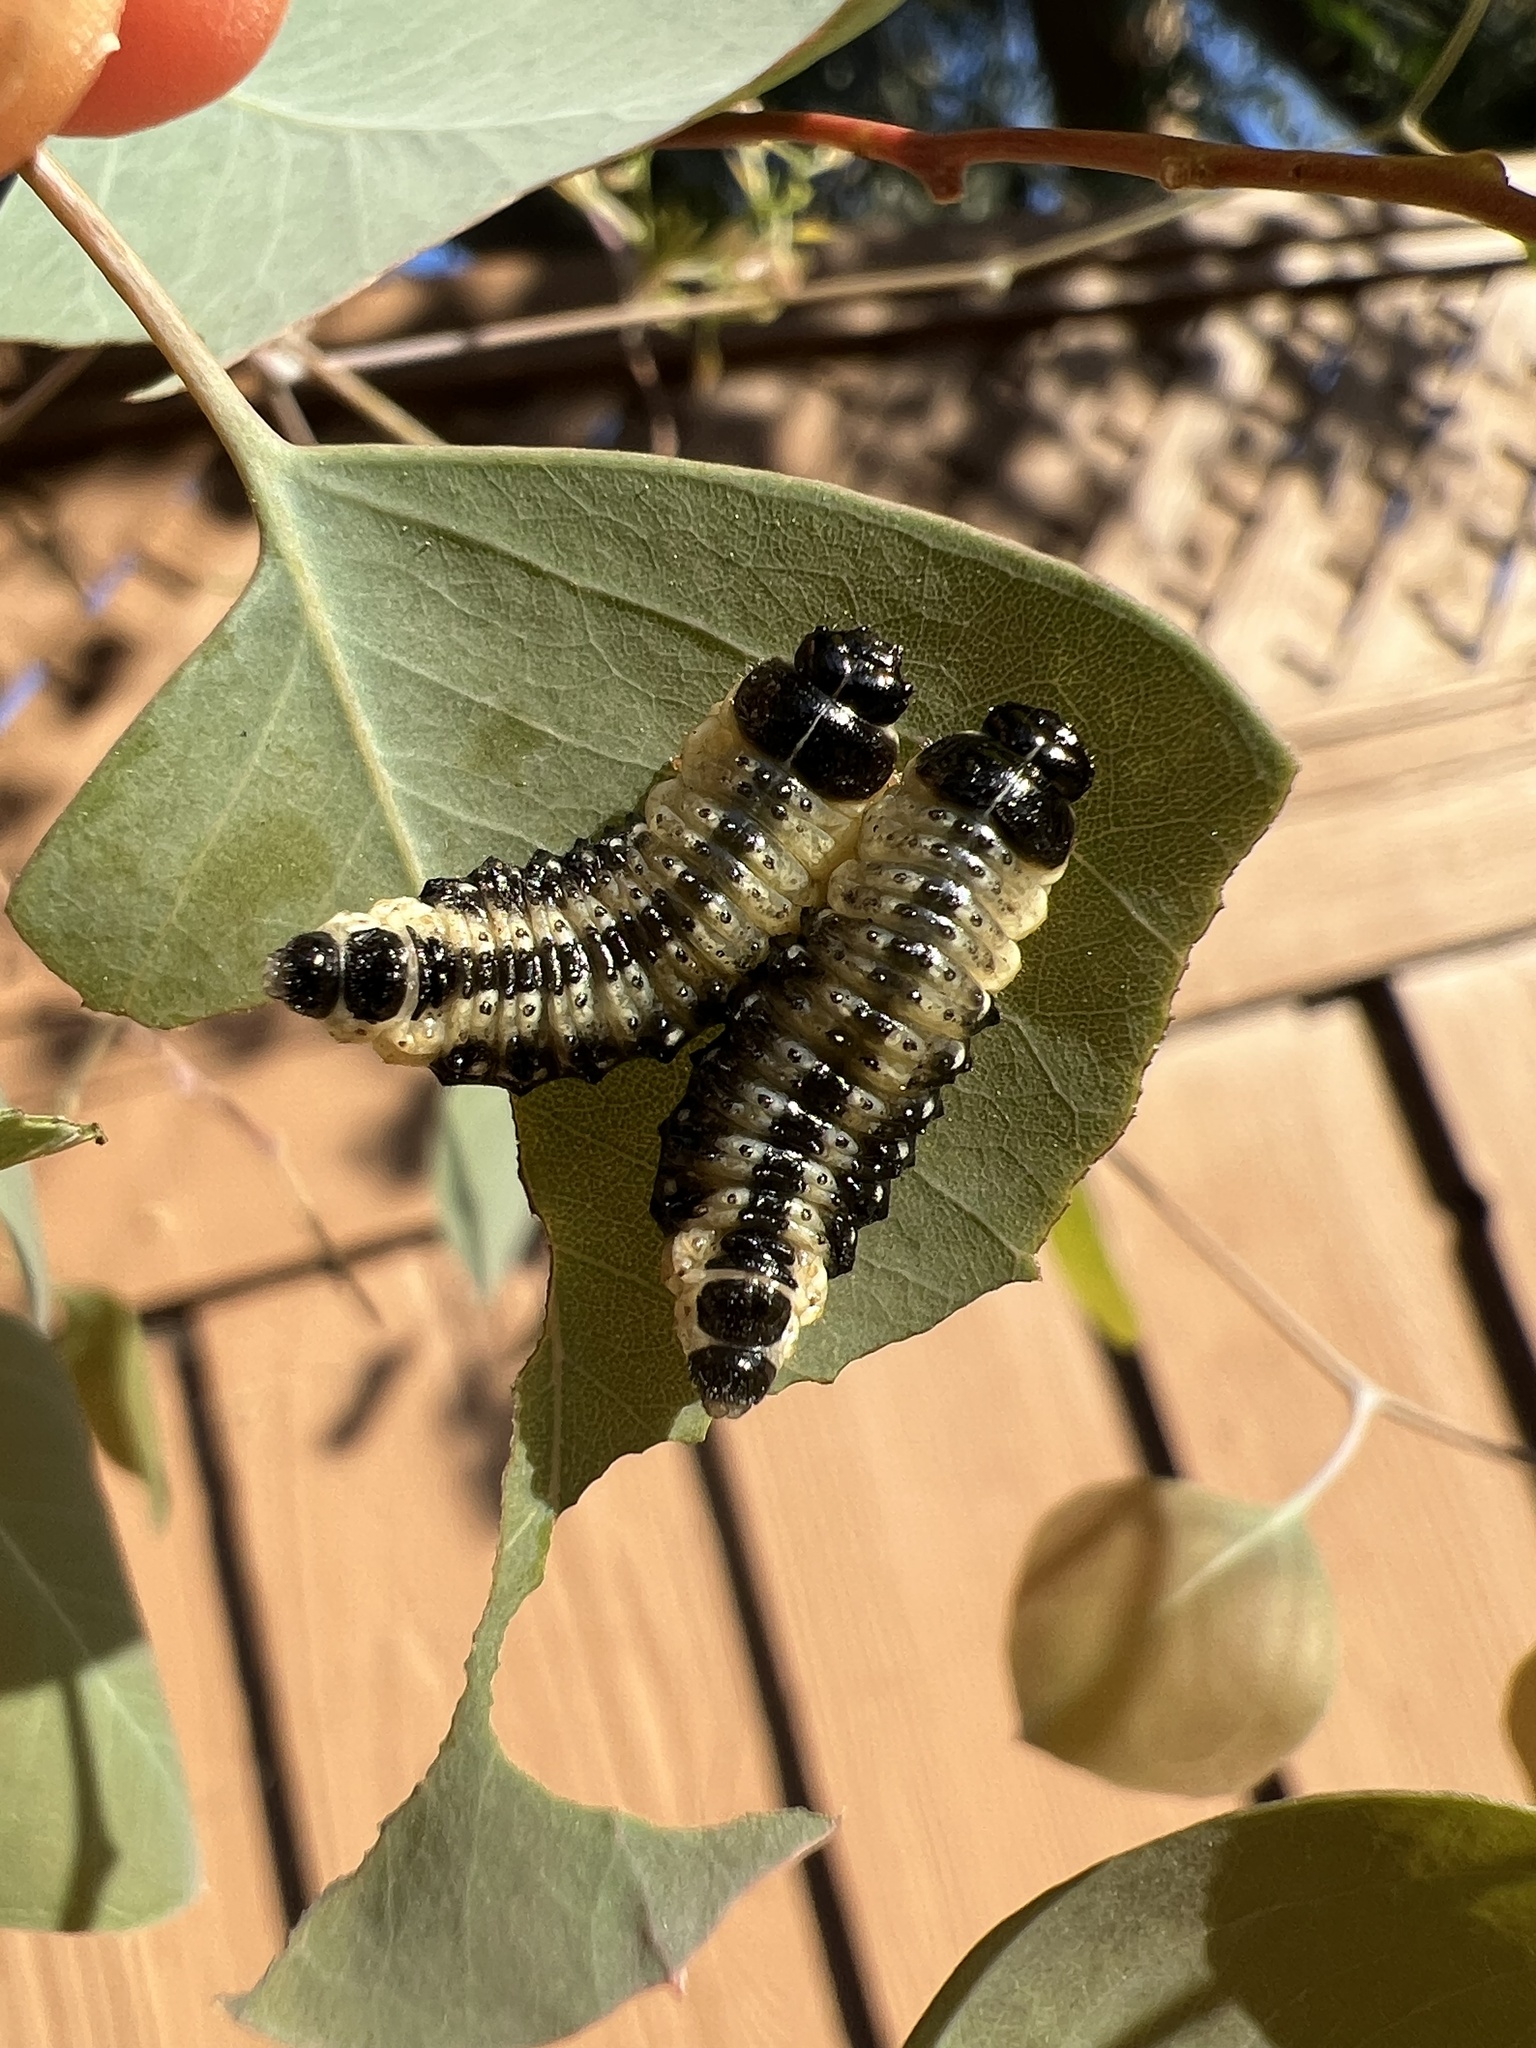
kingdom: Animalia
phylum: Arthropoda
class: Insecta
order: Coleoptera
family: Chrysomelidae
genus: Paropsis
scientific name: Paropsis
